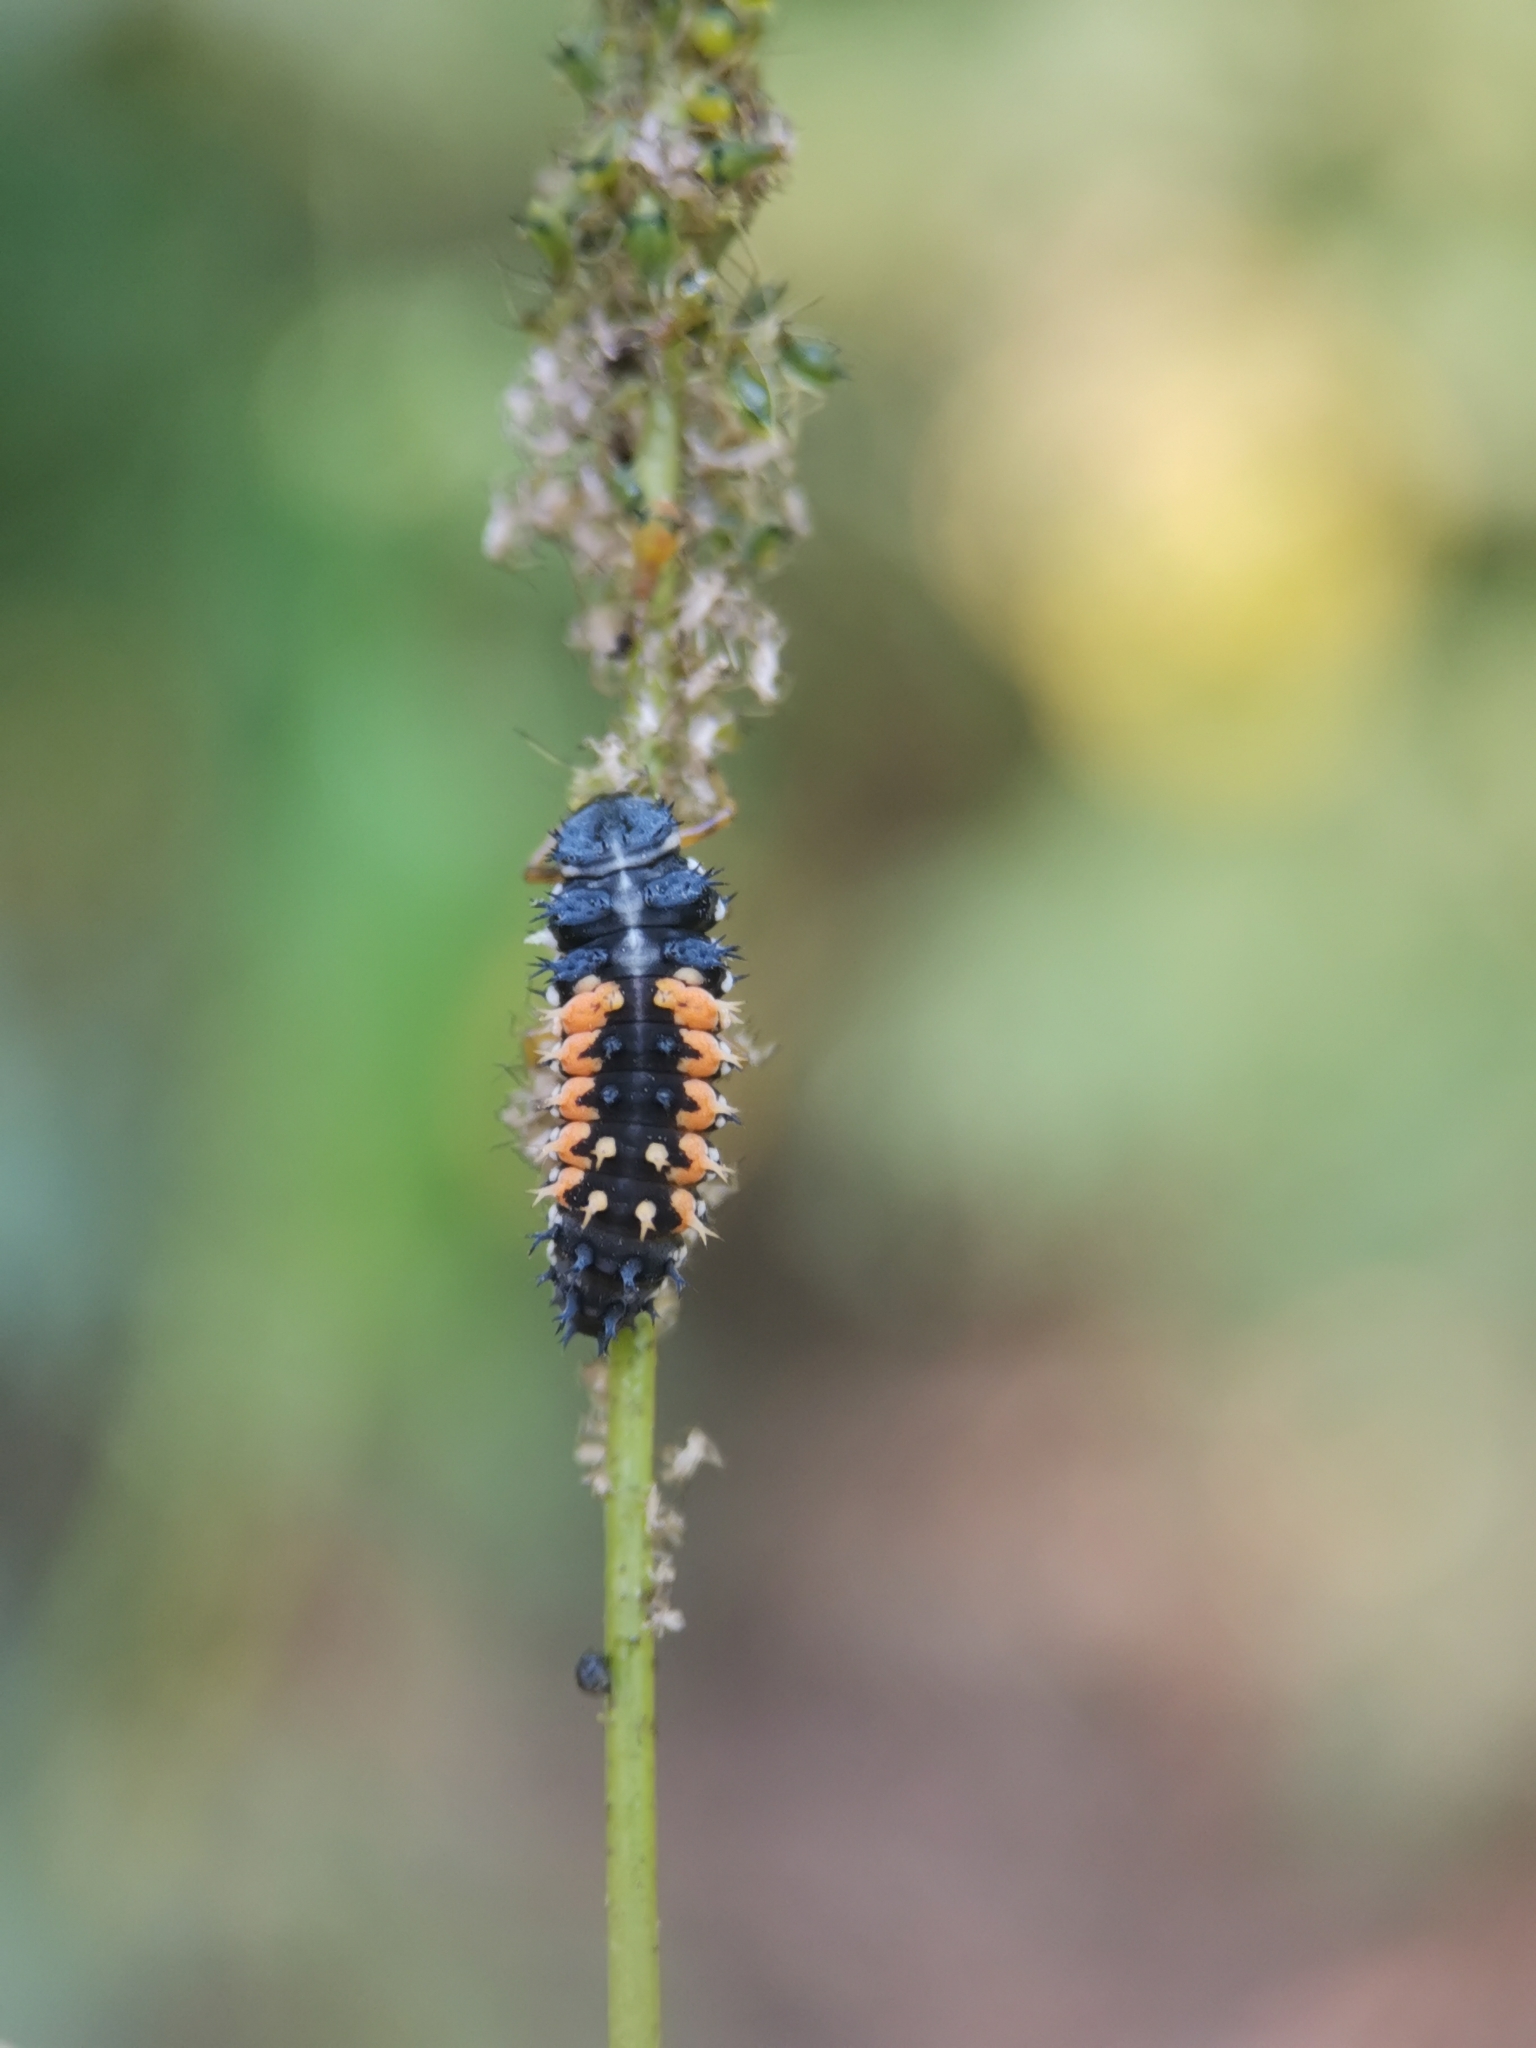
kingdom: Animalia
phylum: Arthropoda
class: Insecta
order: Coleoptera
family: Coccinellidae
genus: Harmonia
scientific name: Harmonia axyridis
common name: Harlequin ladybird
